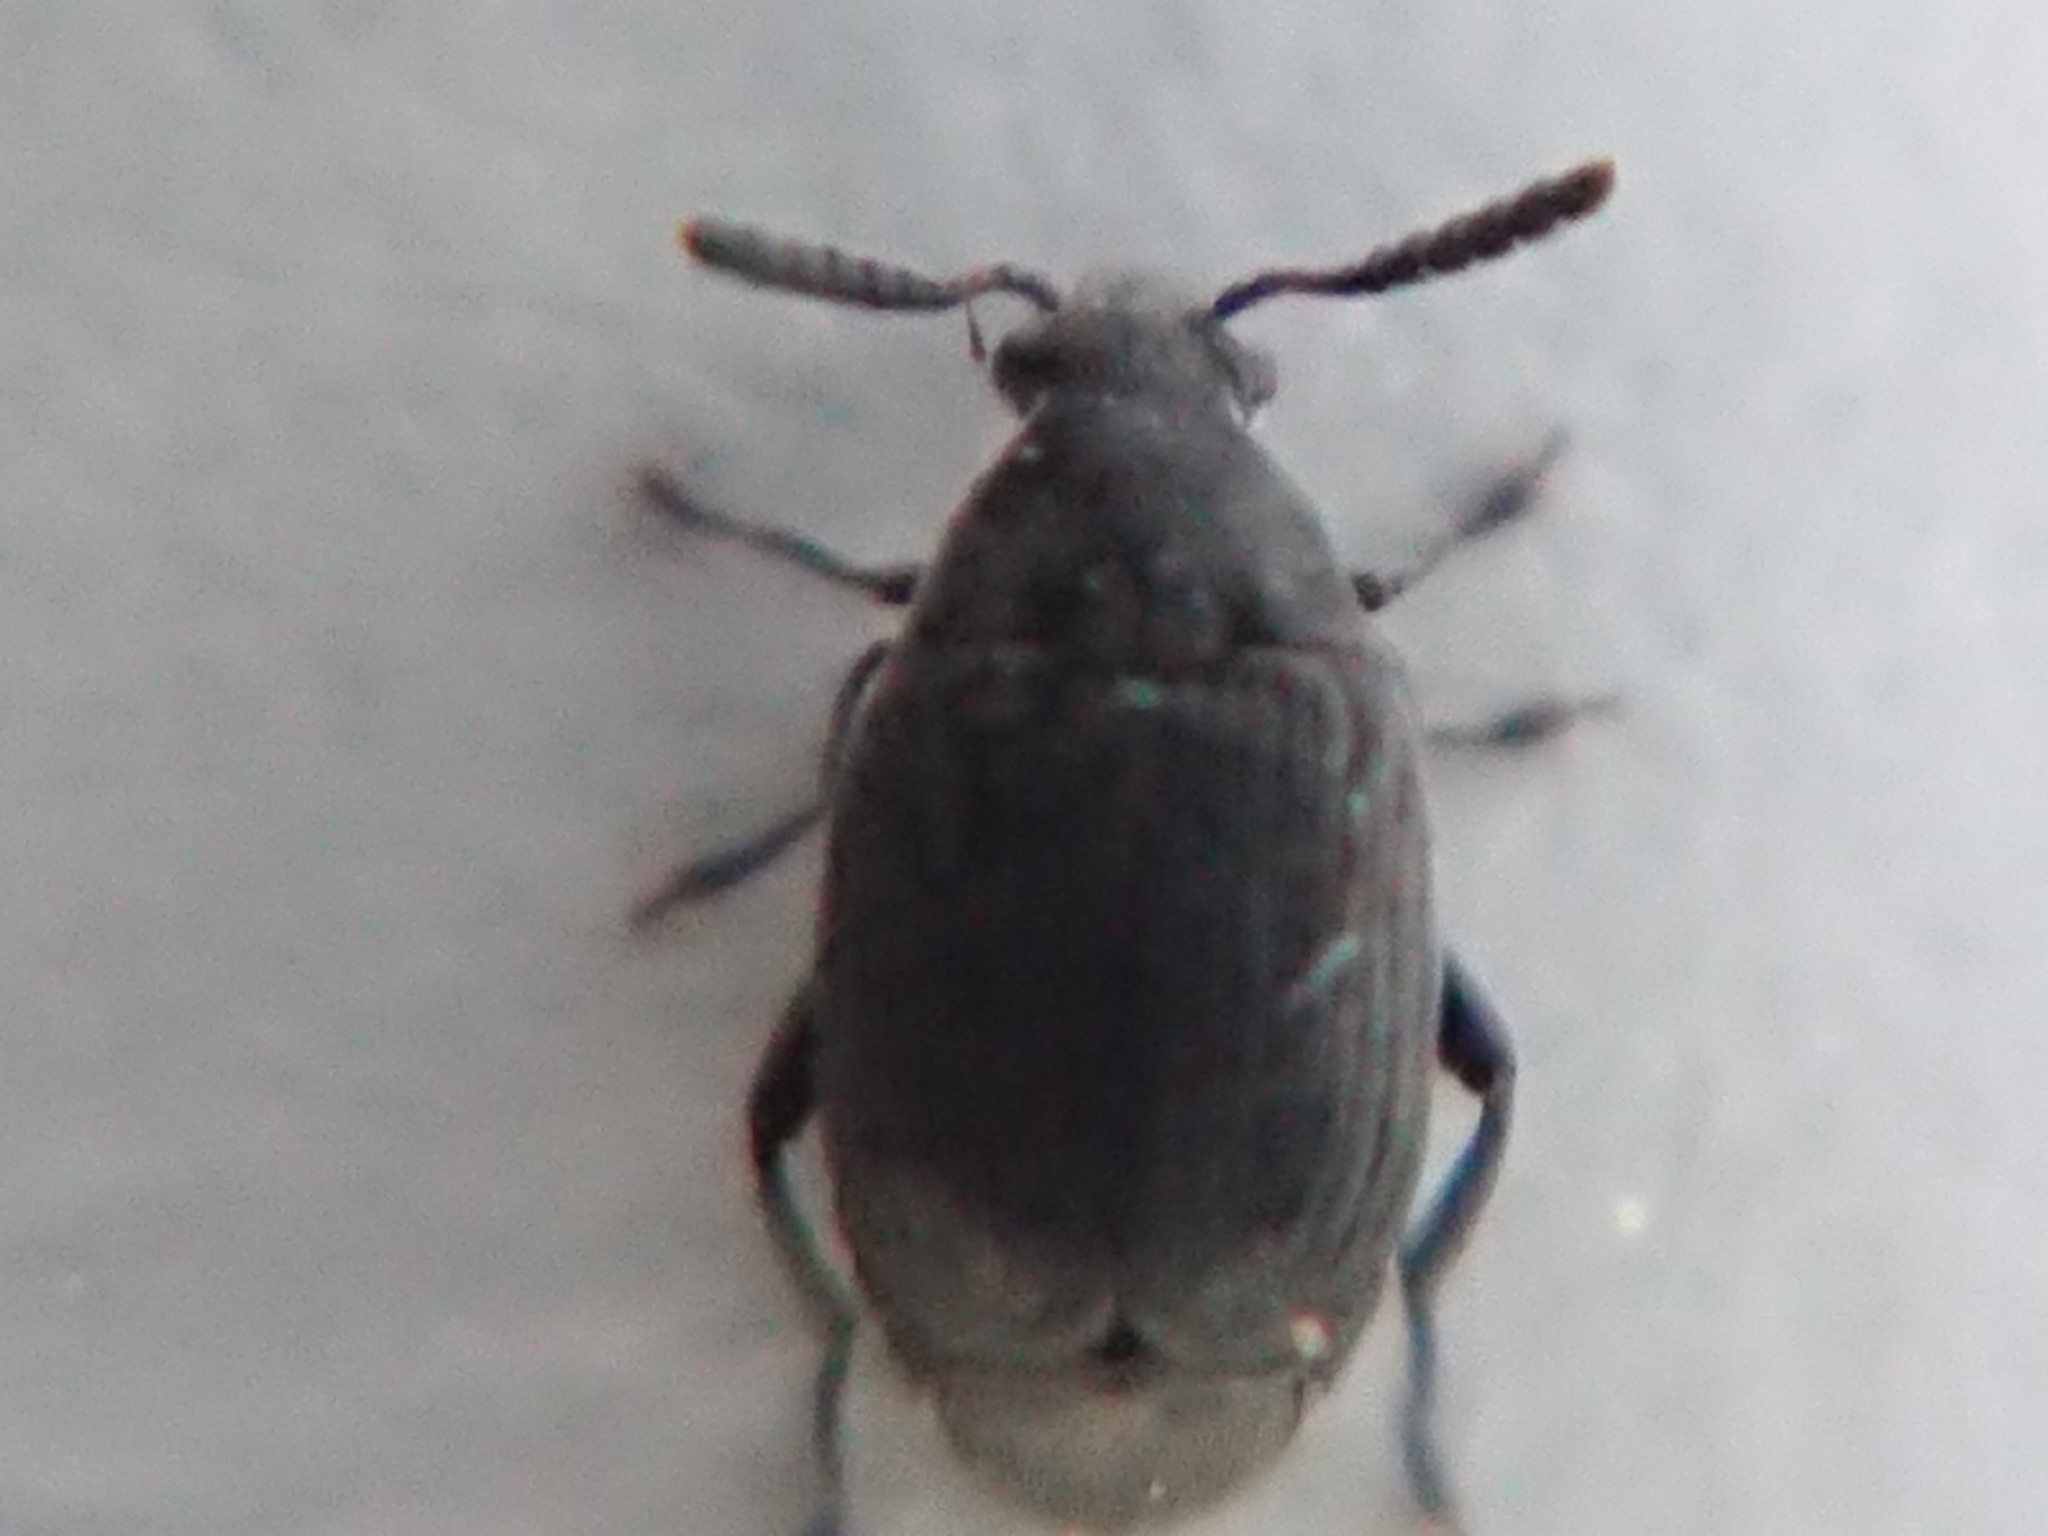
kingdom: Animalia
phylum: Arthropoda
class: Insecta
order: Coleoptera
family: Chrysomelidae
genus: Bruchidius
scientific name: Bruchidius villosus
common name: Scotch broom bruchid
